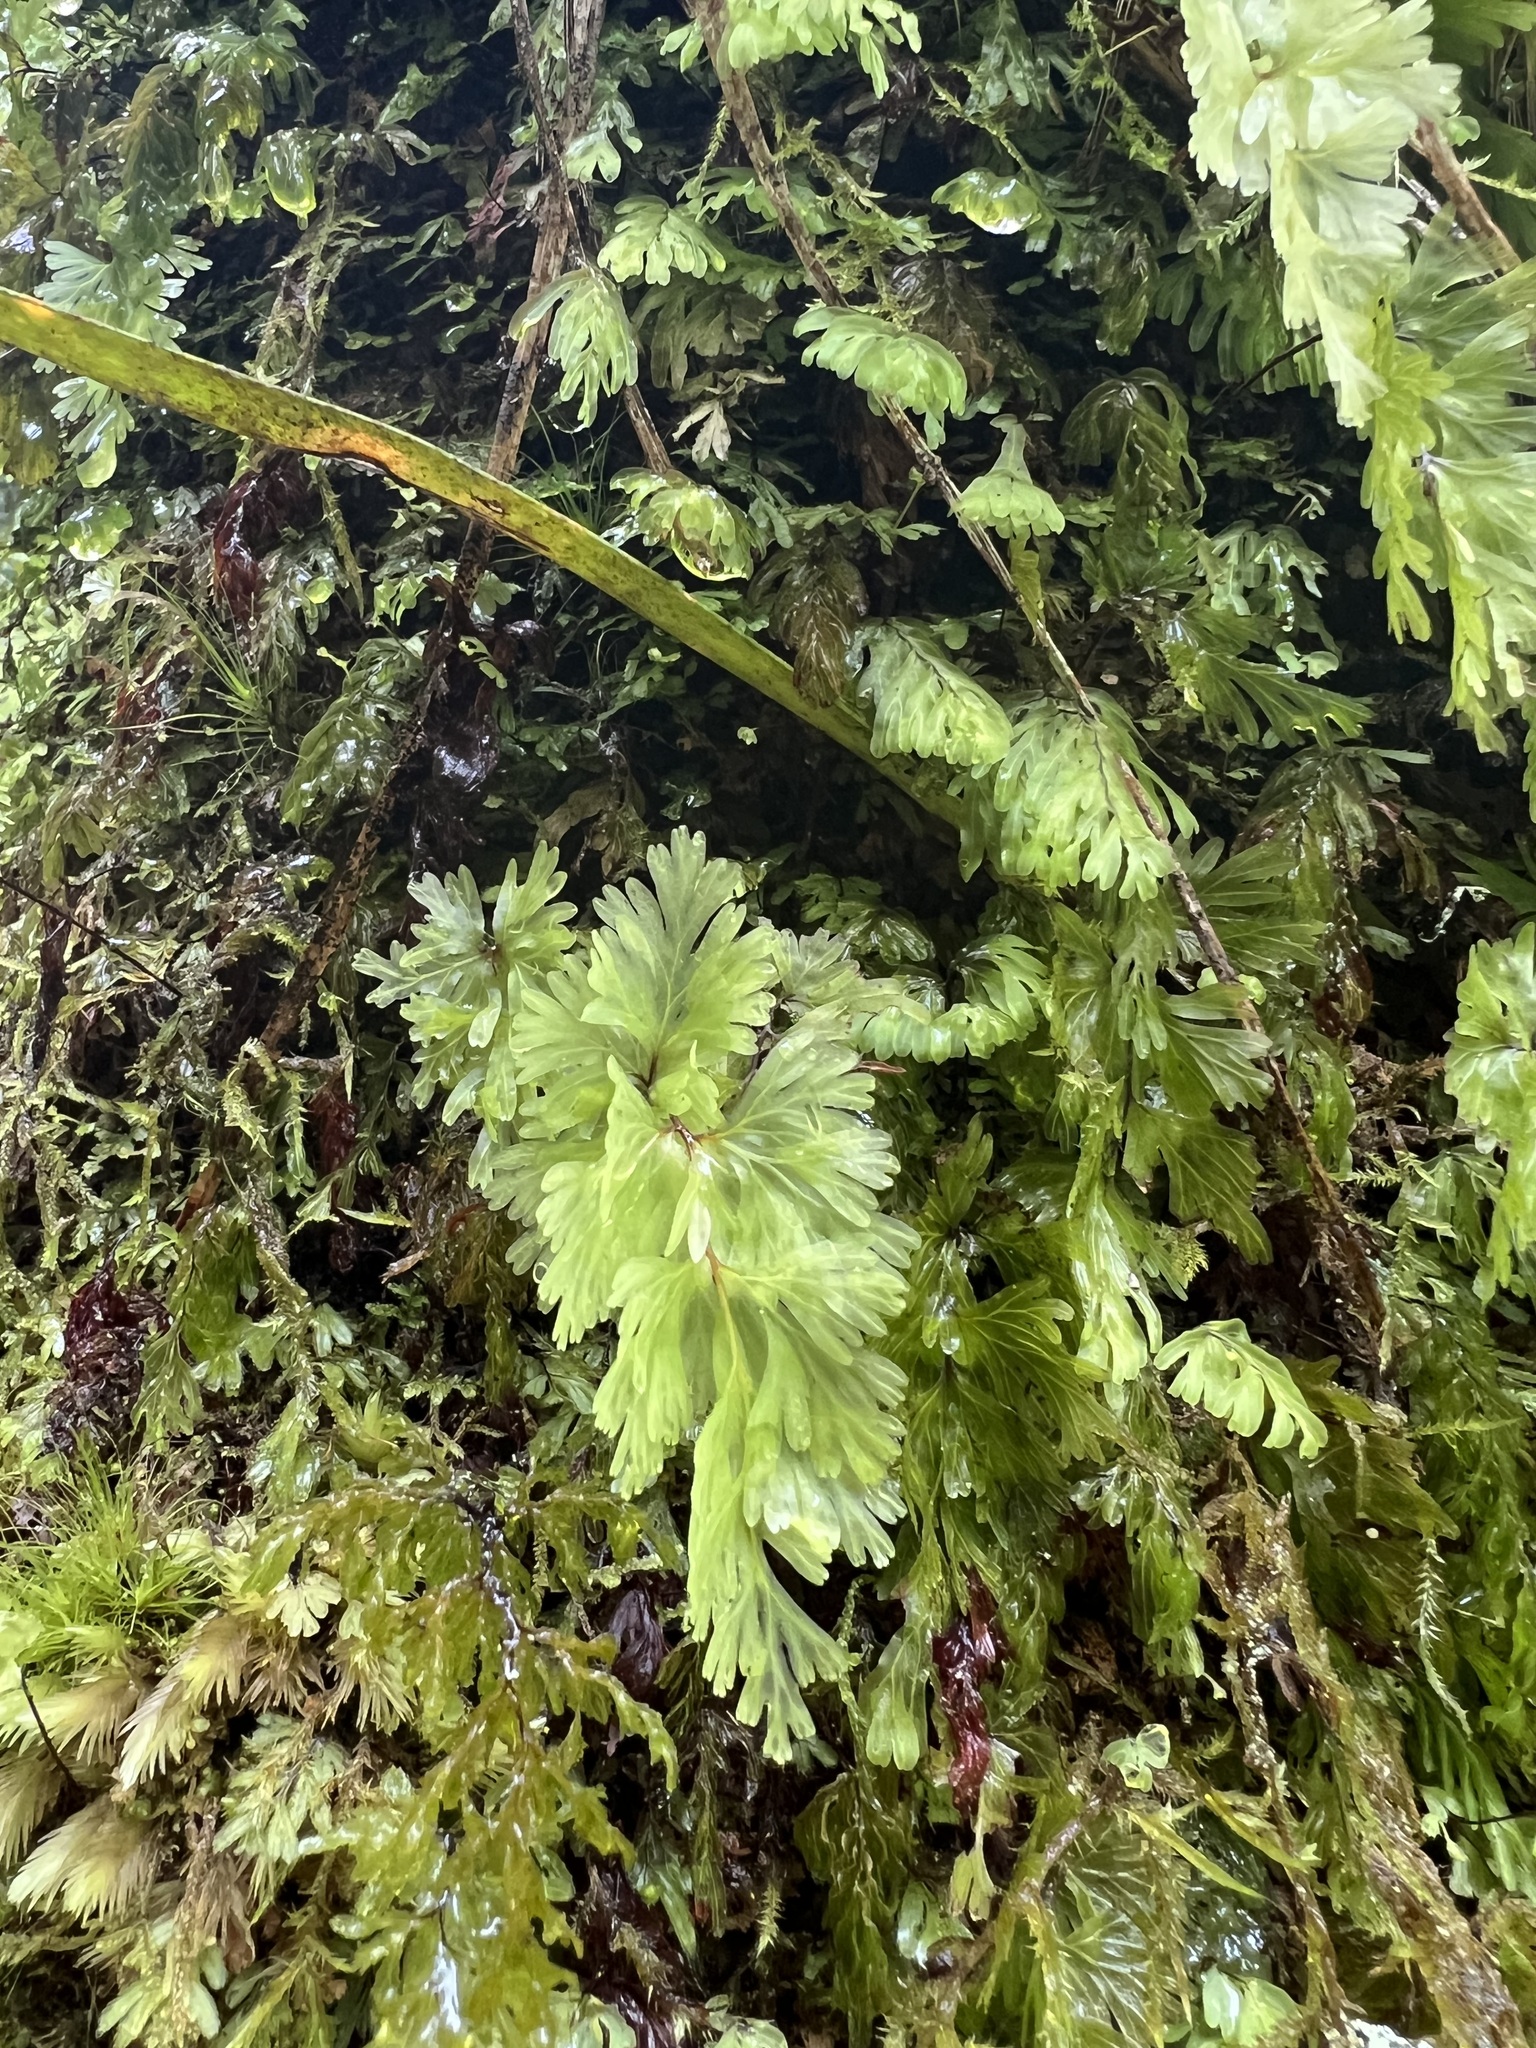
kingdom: Plantae
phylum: Tracheophyta
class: Polypodiopsida
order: Hymenophyllales
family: Hymenophyllaceae
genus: Hymenophyllum
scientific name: Hymenophyllum flabellatum
